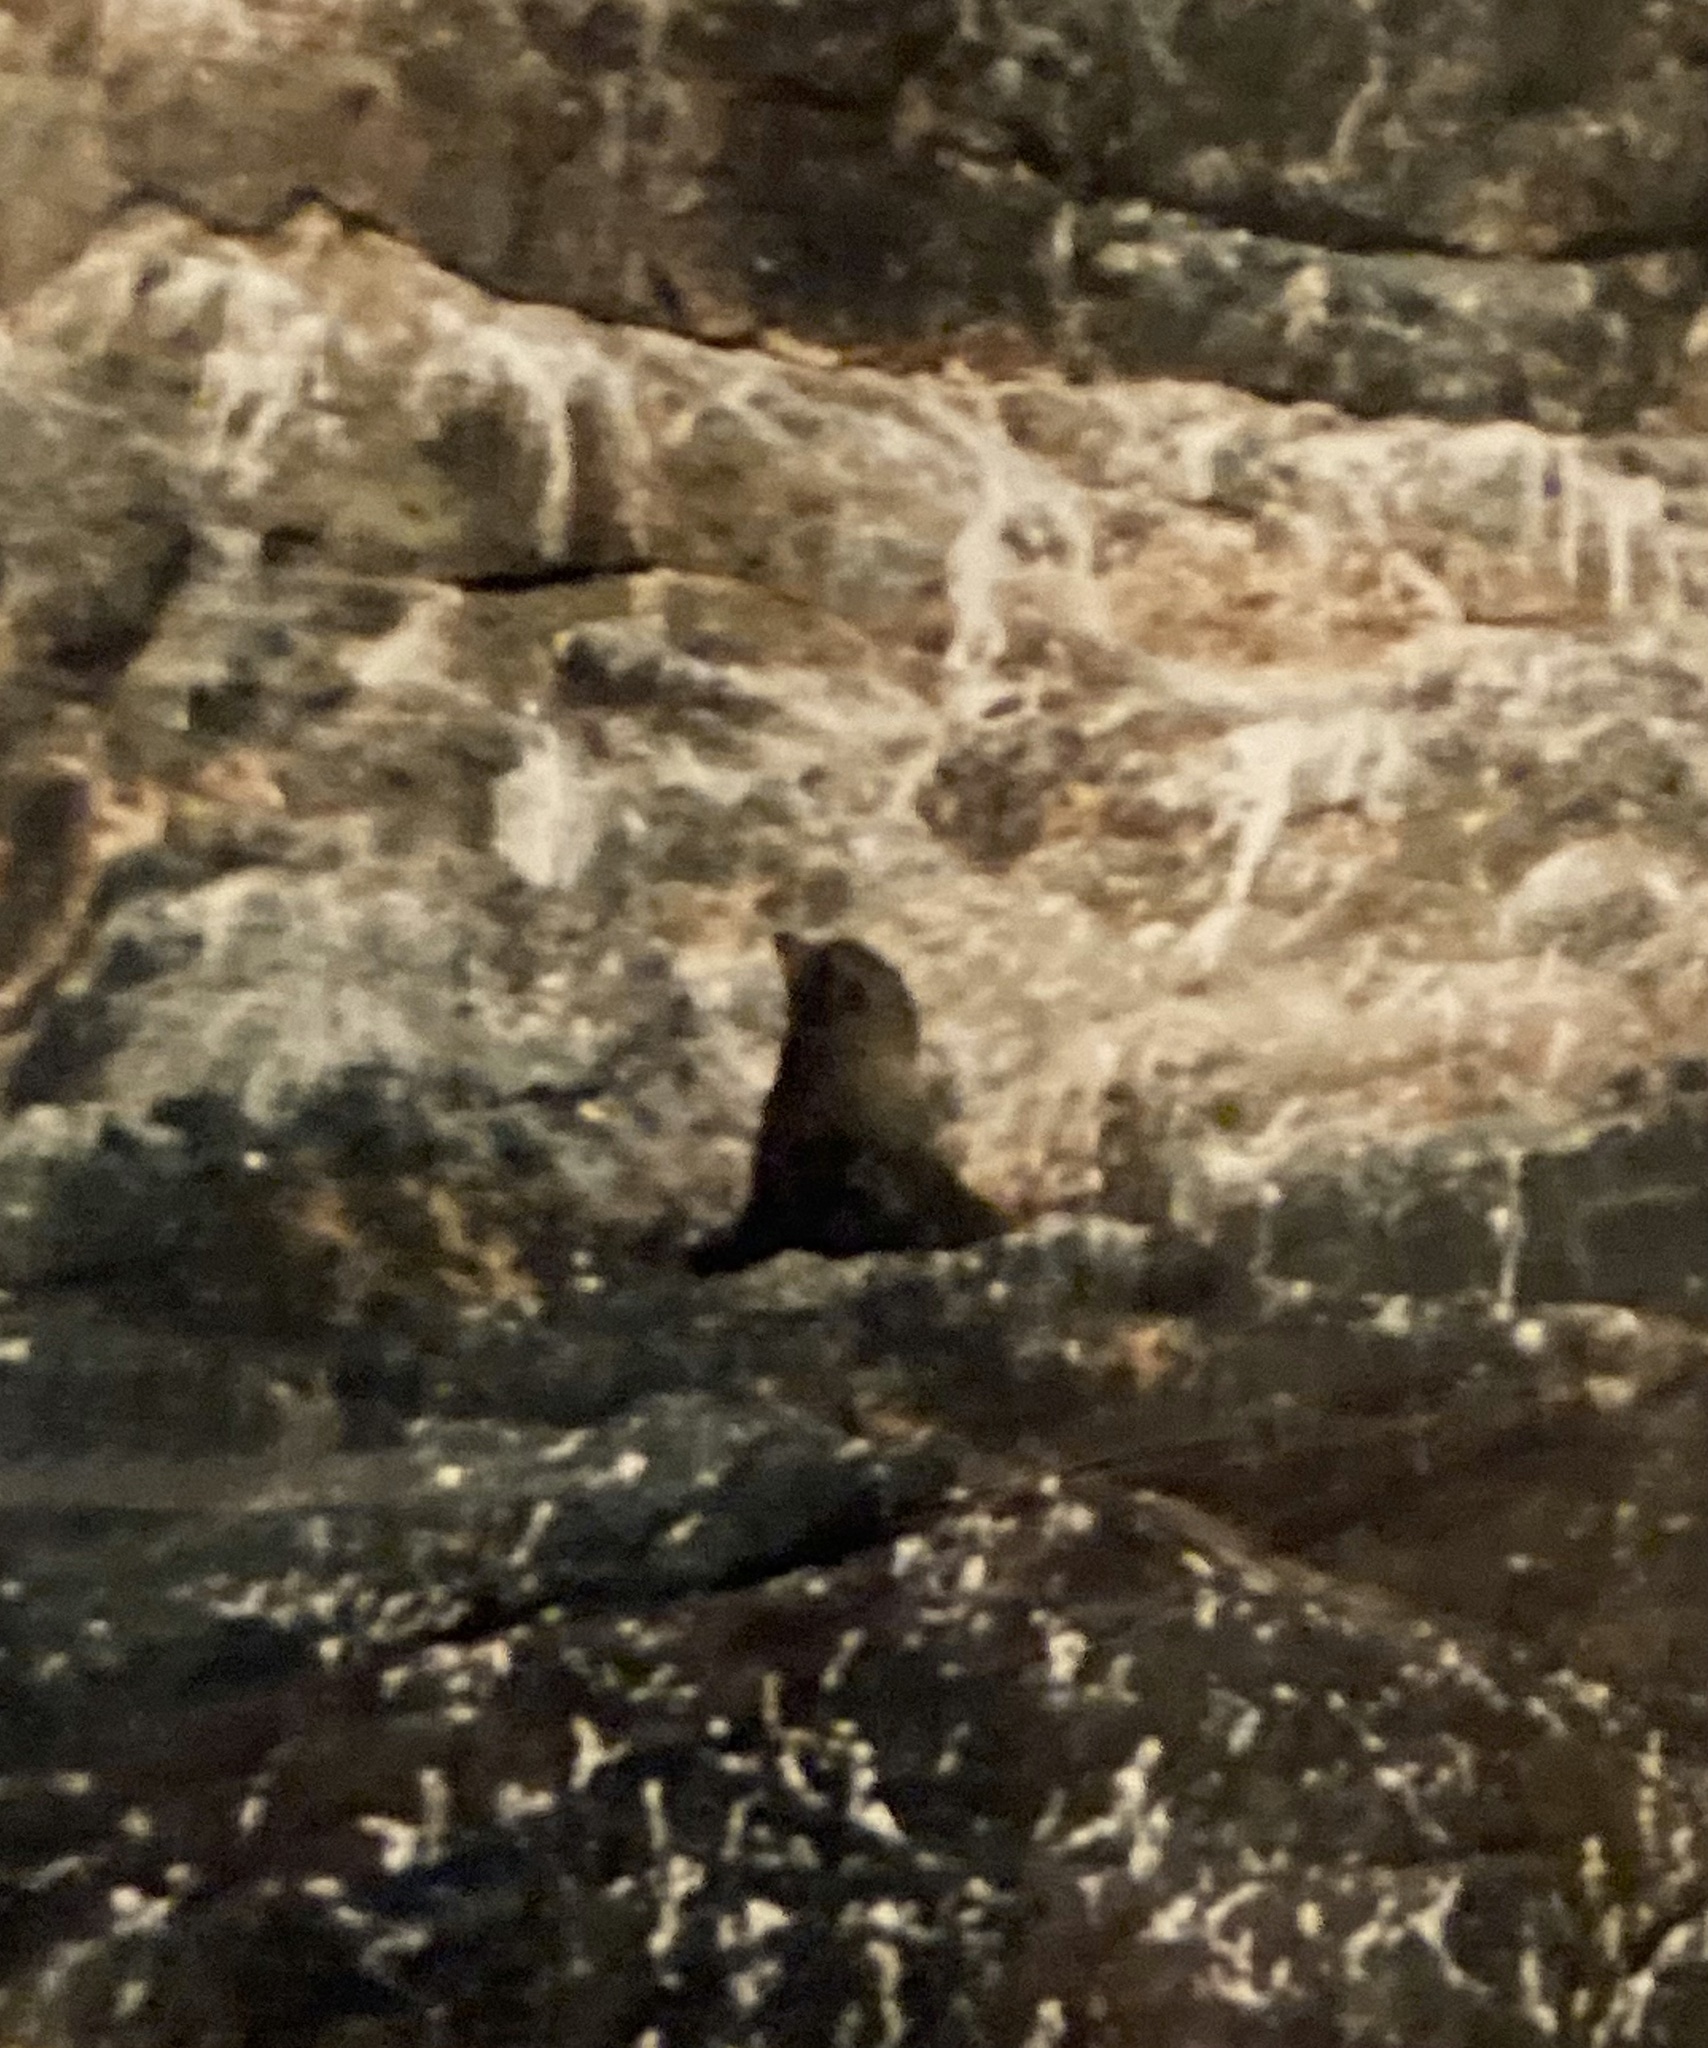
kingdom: Animalia
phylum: Chordata
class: Mammalia
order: Carnivora
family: Otariidae
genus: Arctocephalus
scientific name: Arctocephalus forsteri
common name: New zealand fur seal
